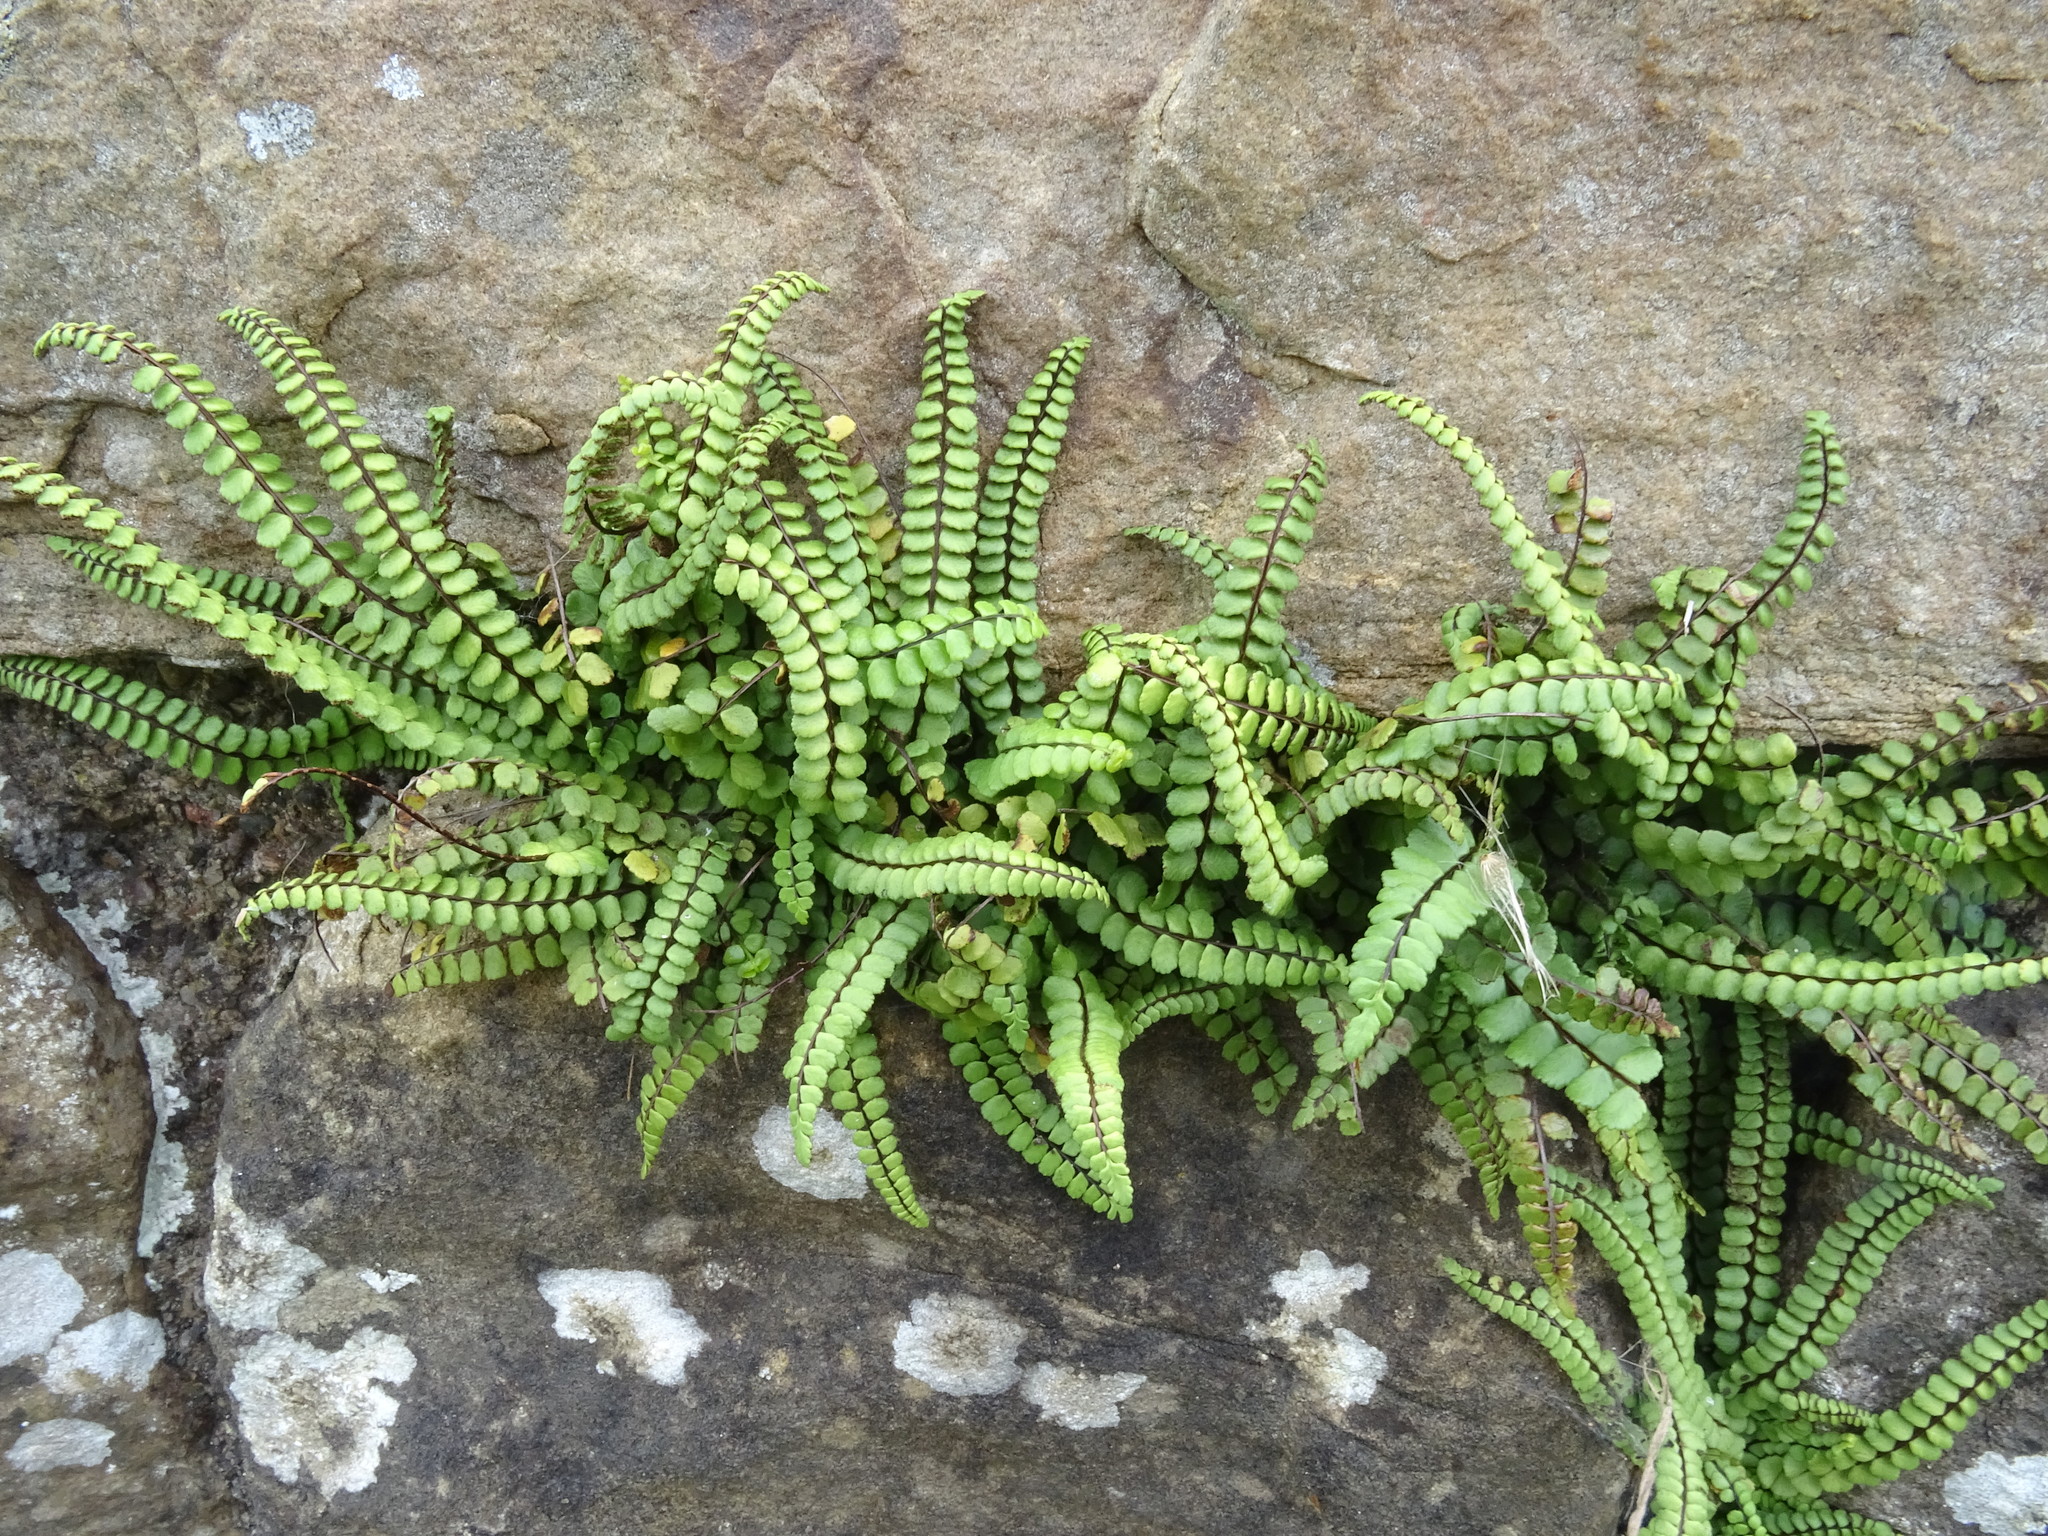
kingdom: Plantae
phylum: Tracheophyta
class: Polypodiopsida
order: Polypodiales
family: Aspleniaceae
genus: Asplenium
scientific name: Asplenium trichomanes
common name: Maidenhair spleenwort
